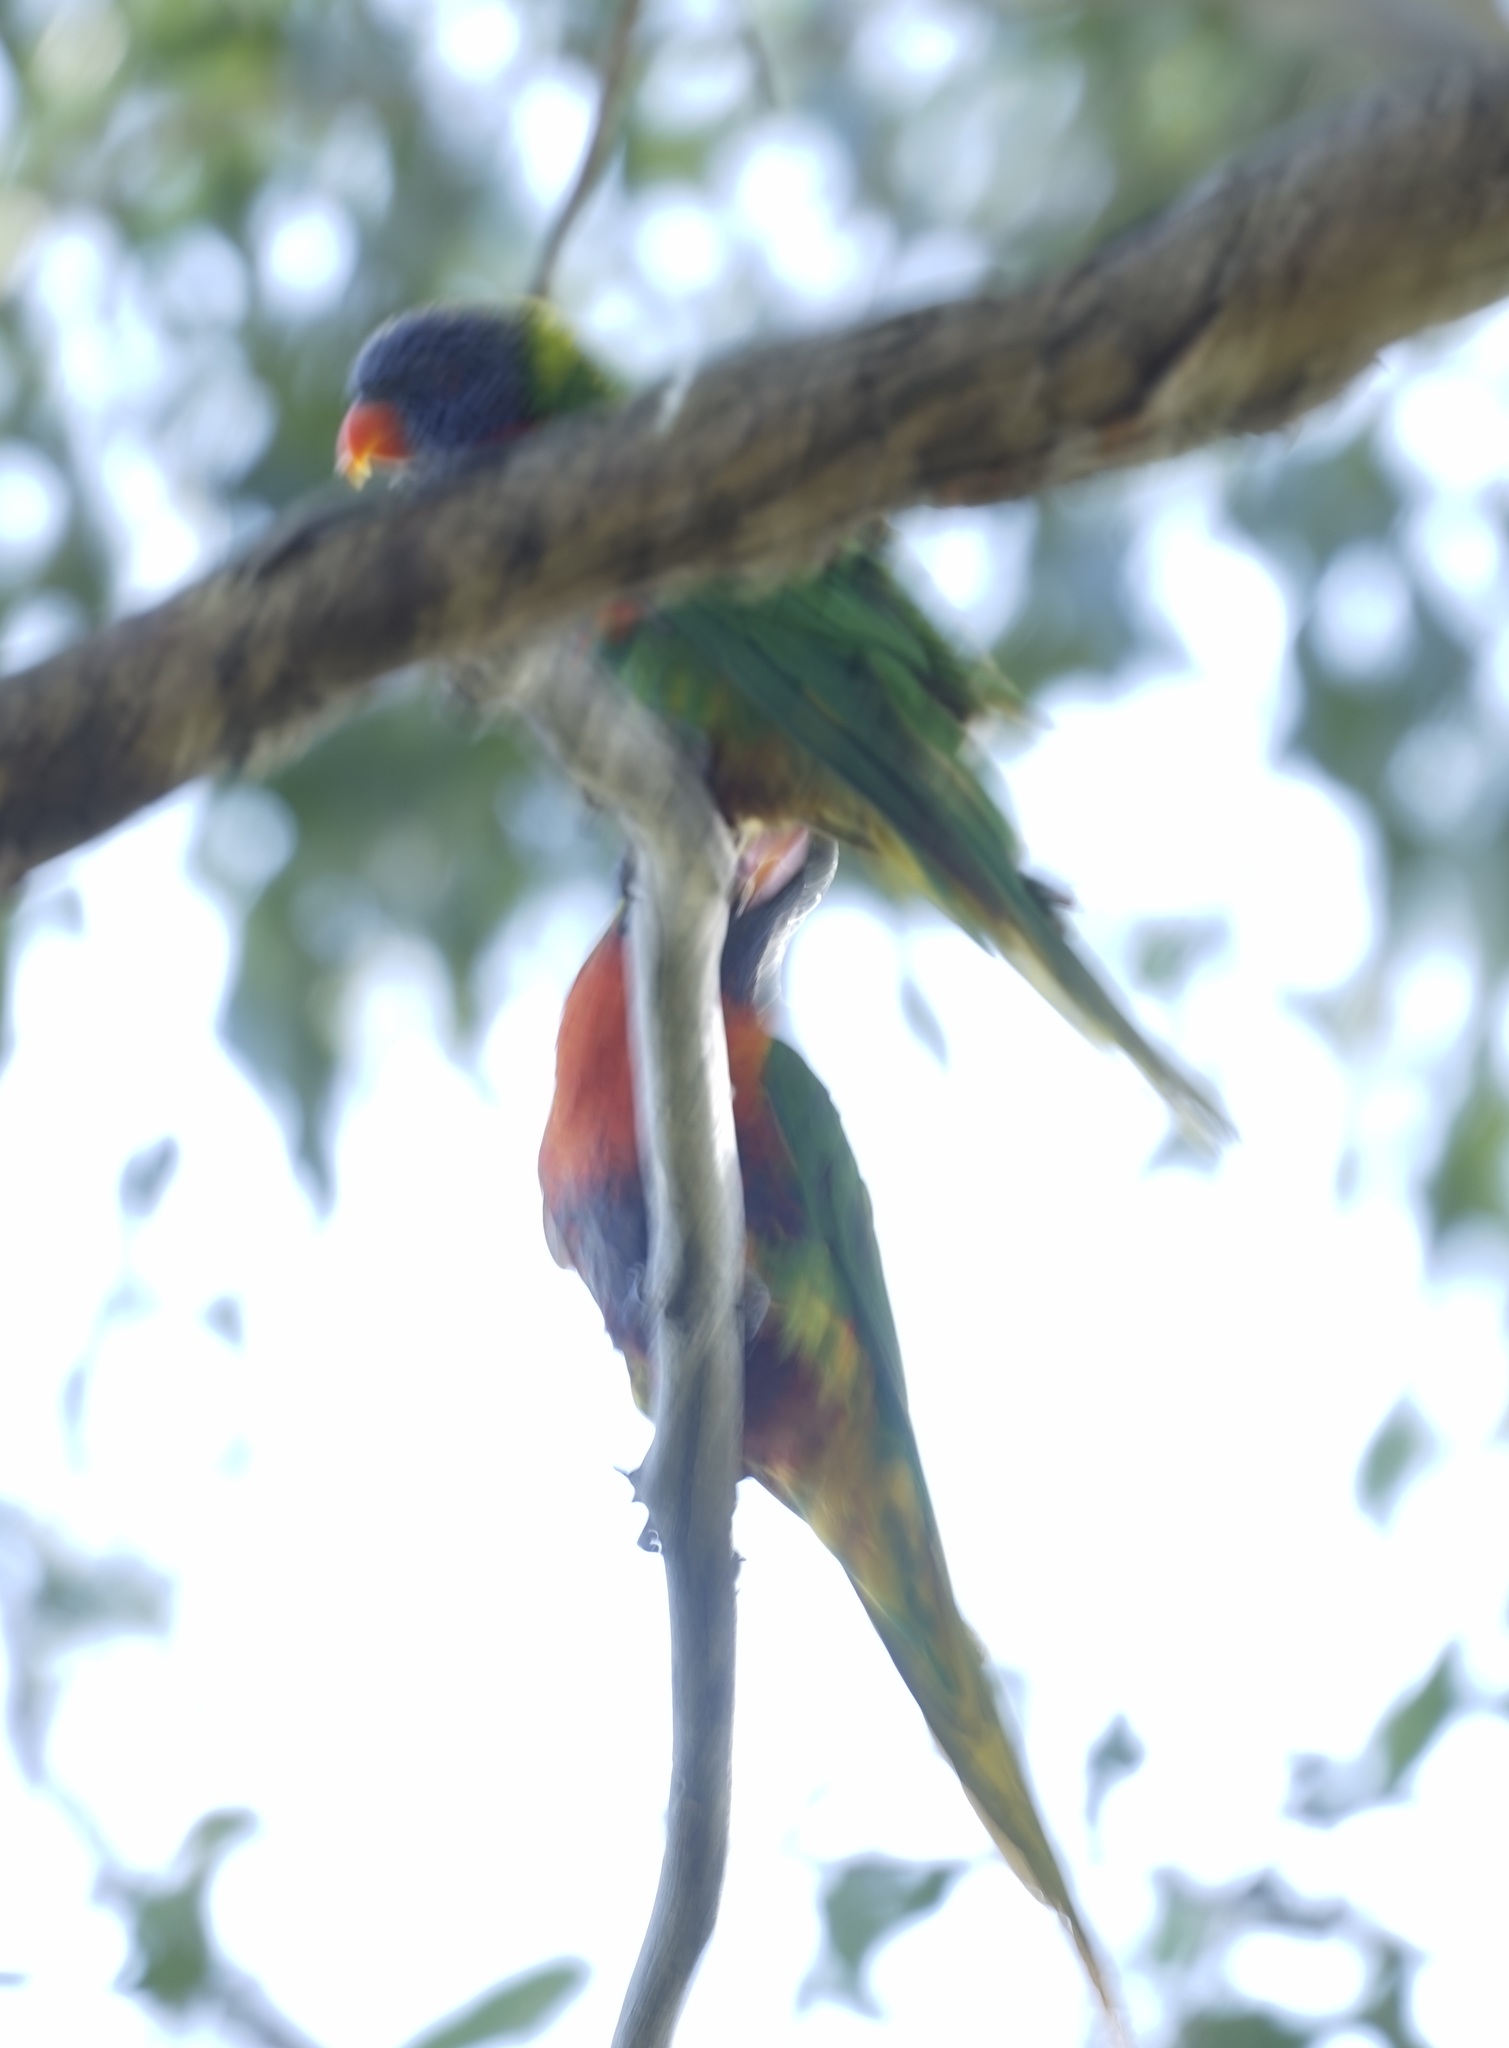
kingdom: Animalia
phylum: Chordata
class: Aves
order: Psittaciformes
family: Psittacidae
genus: Trichoglossus
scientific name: Trichoglossus haematodus
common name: Coconut lorikeet
